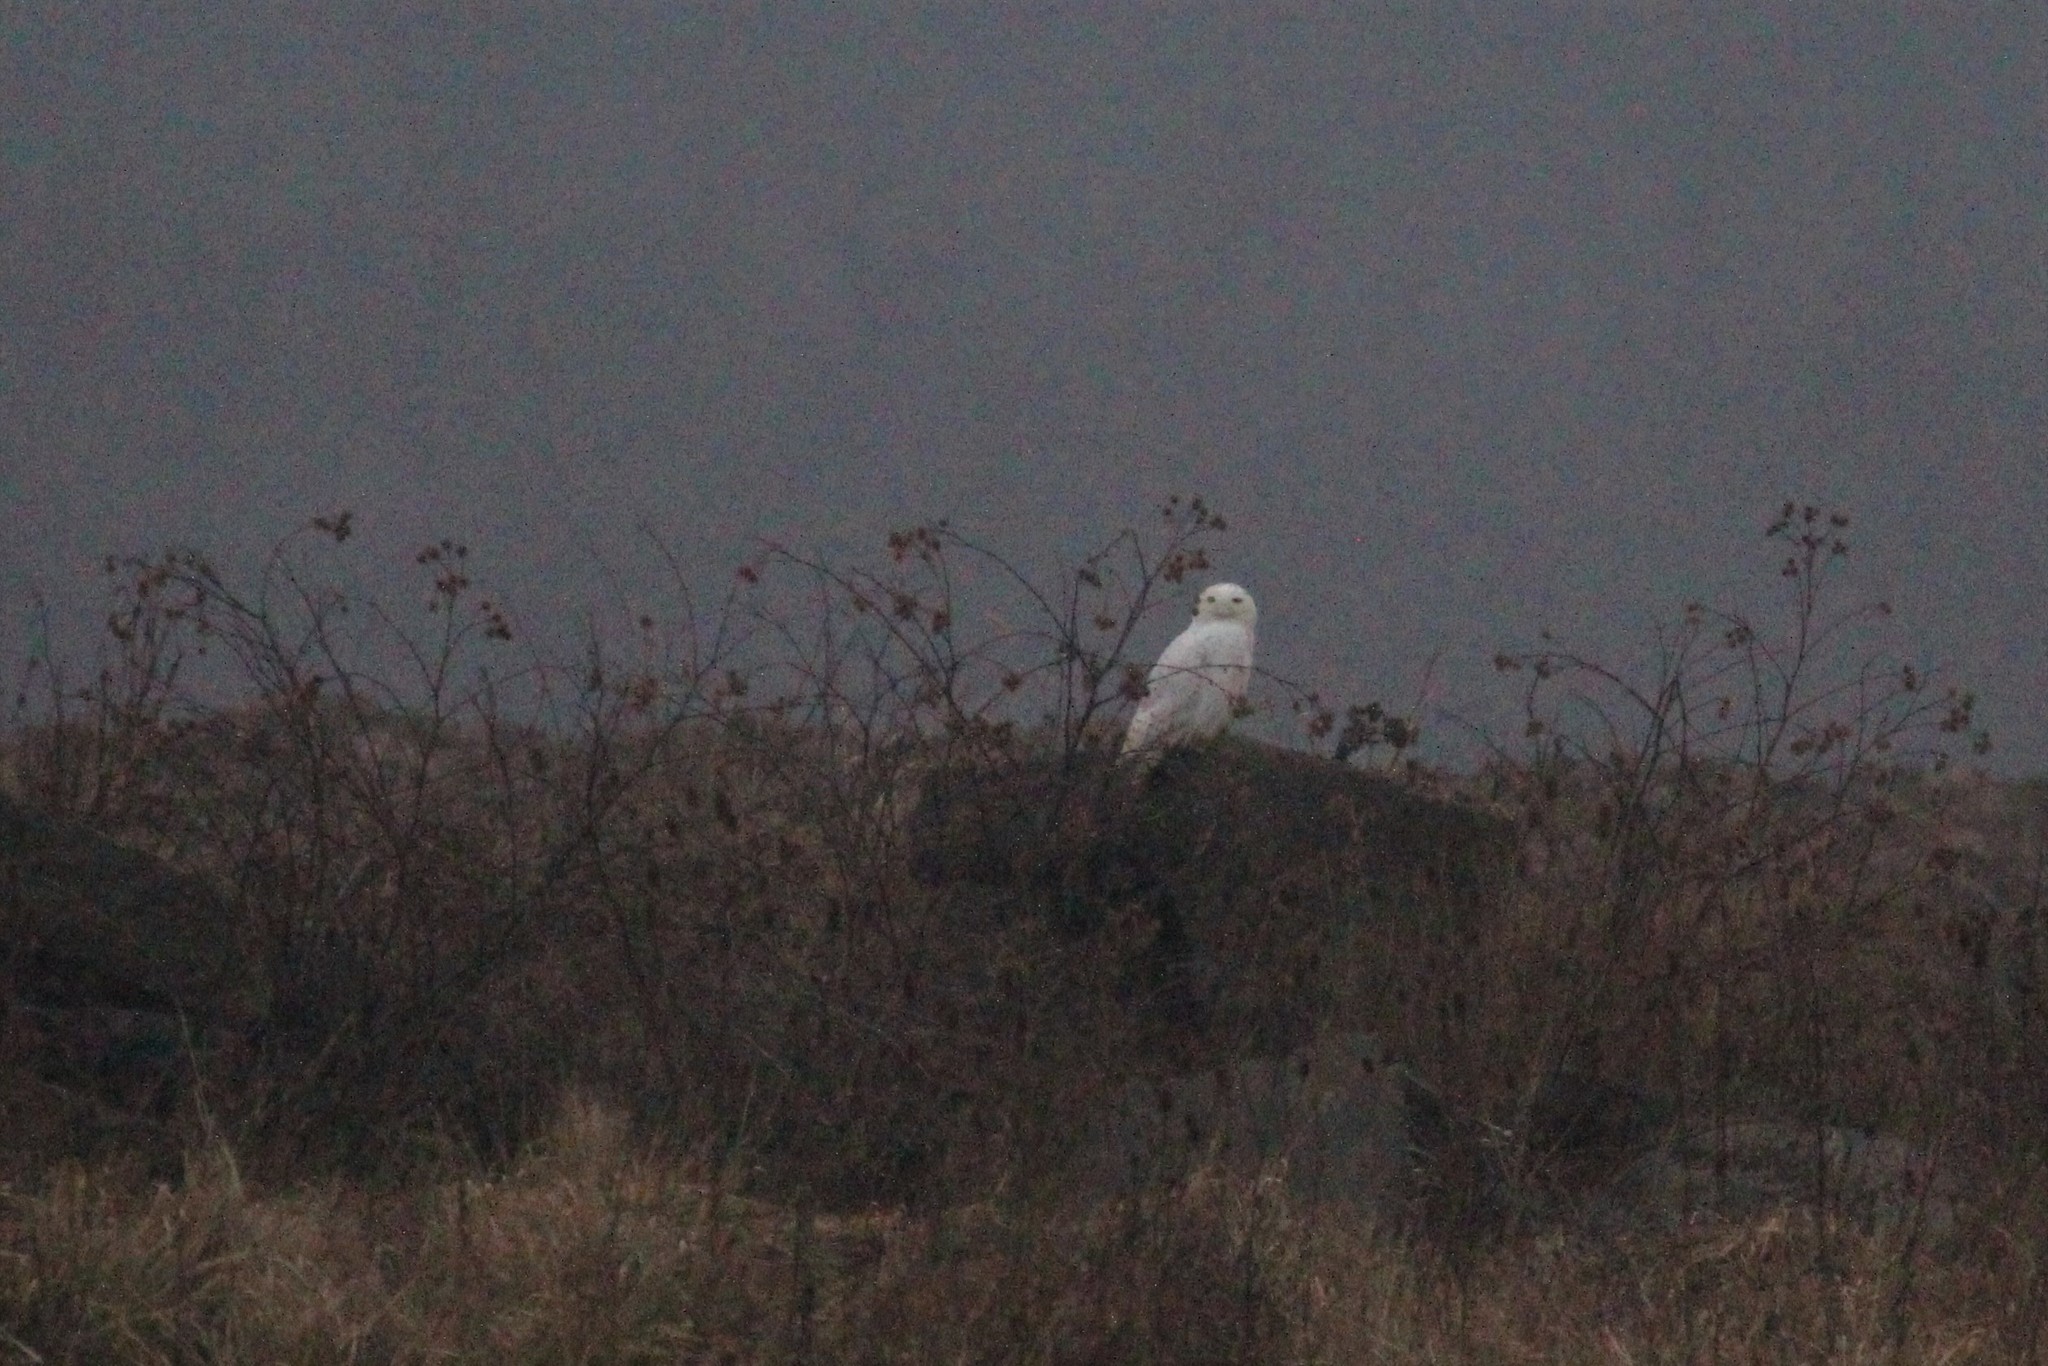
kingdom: Animalia
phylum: Chordata
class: Aves
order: Strigiformes
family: Strigidae
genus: Bubo
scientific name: Bubo scandiacus
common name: Snowy owl
